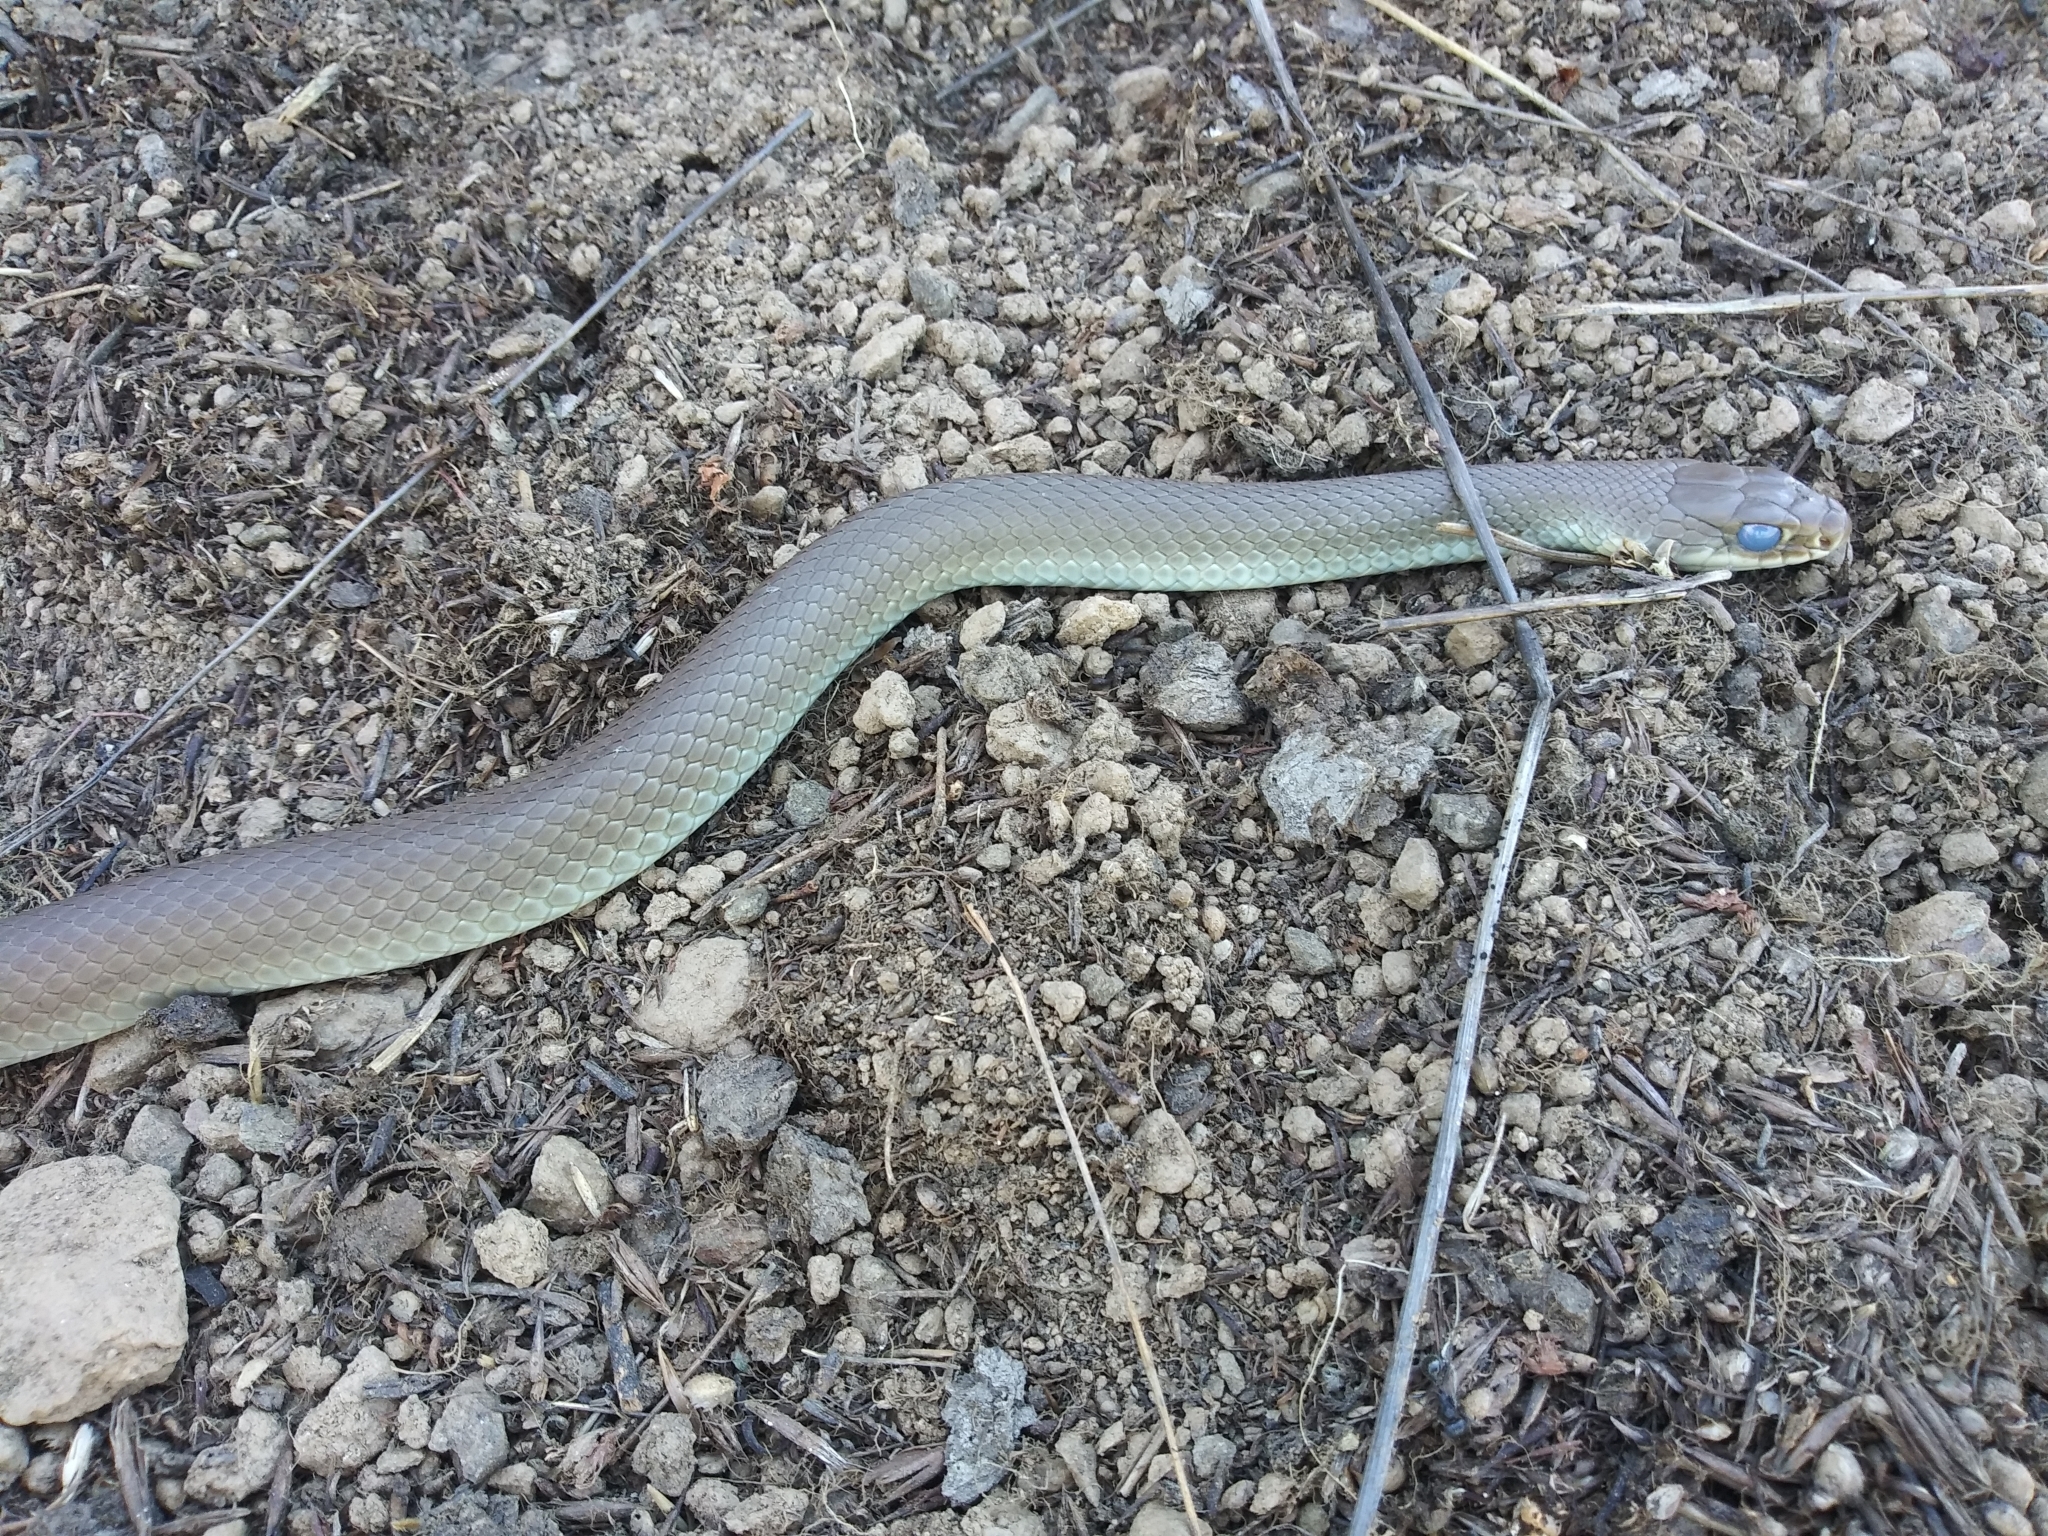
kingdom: Animalia
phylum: Chordata
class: Squamata
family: Colubridae
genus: Coluber
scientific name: Coluber constrictor
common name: Eastern racer
